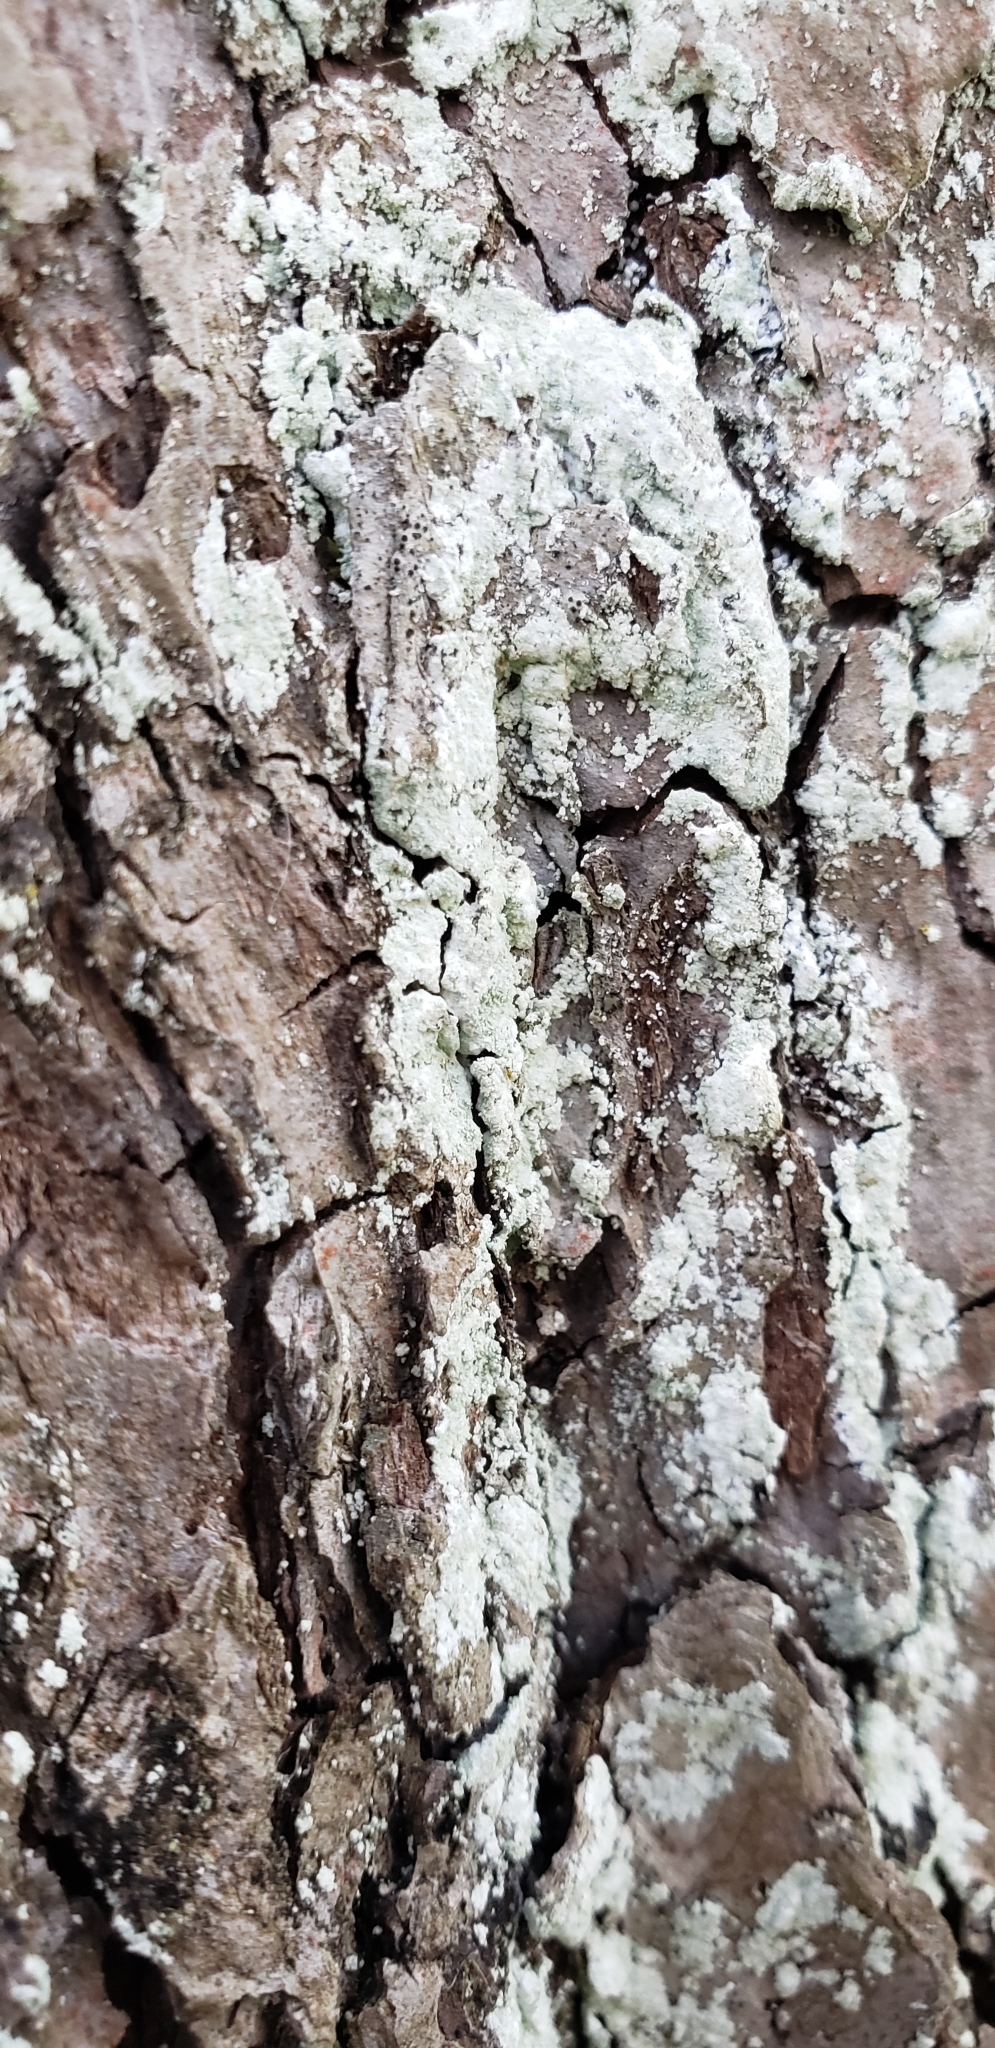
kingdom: Fungi
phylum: Ascomycota
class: Lecanoromycetes
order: Lecanorales
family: Stereocaulaceae
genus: Lepraria
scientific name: Lepraria lobificans
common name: Fluffy dust lichen
